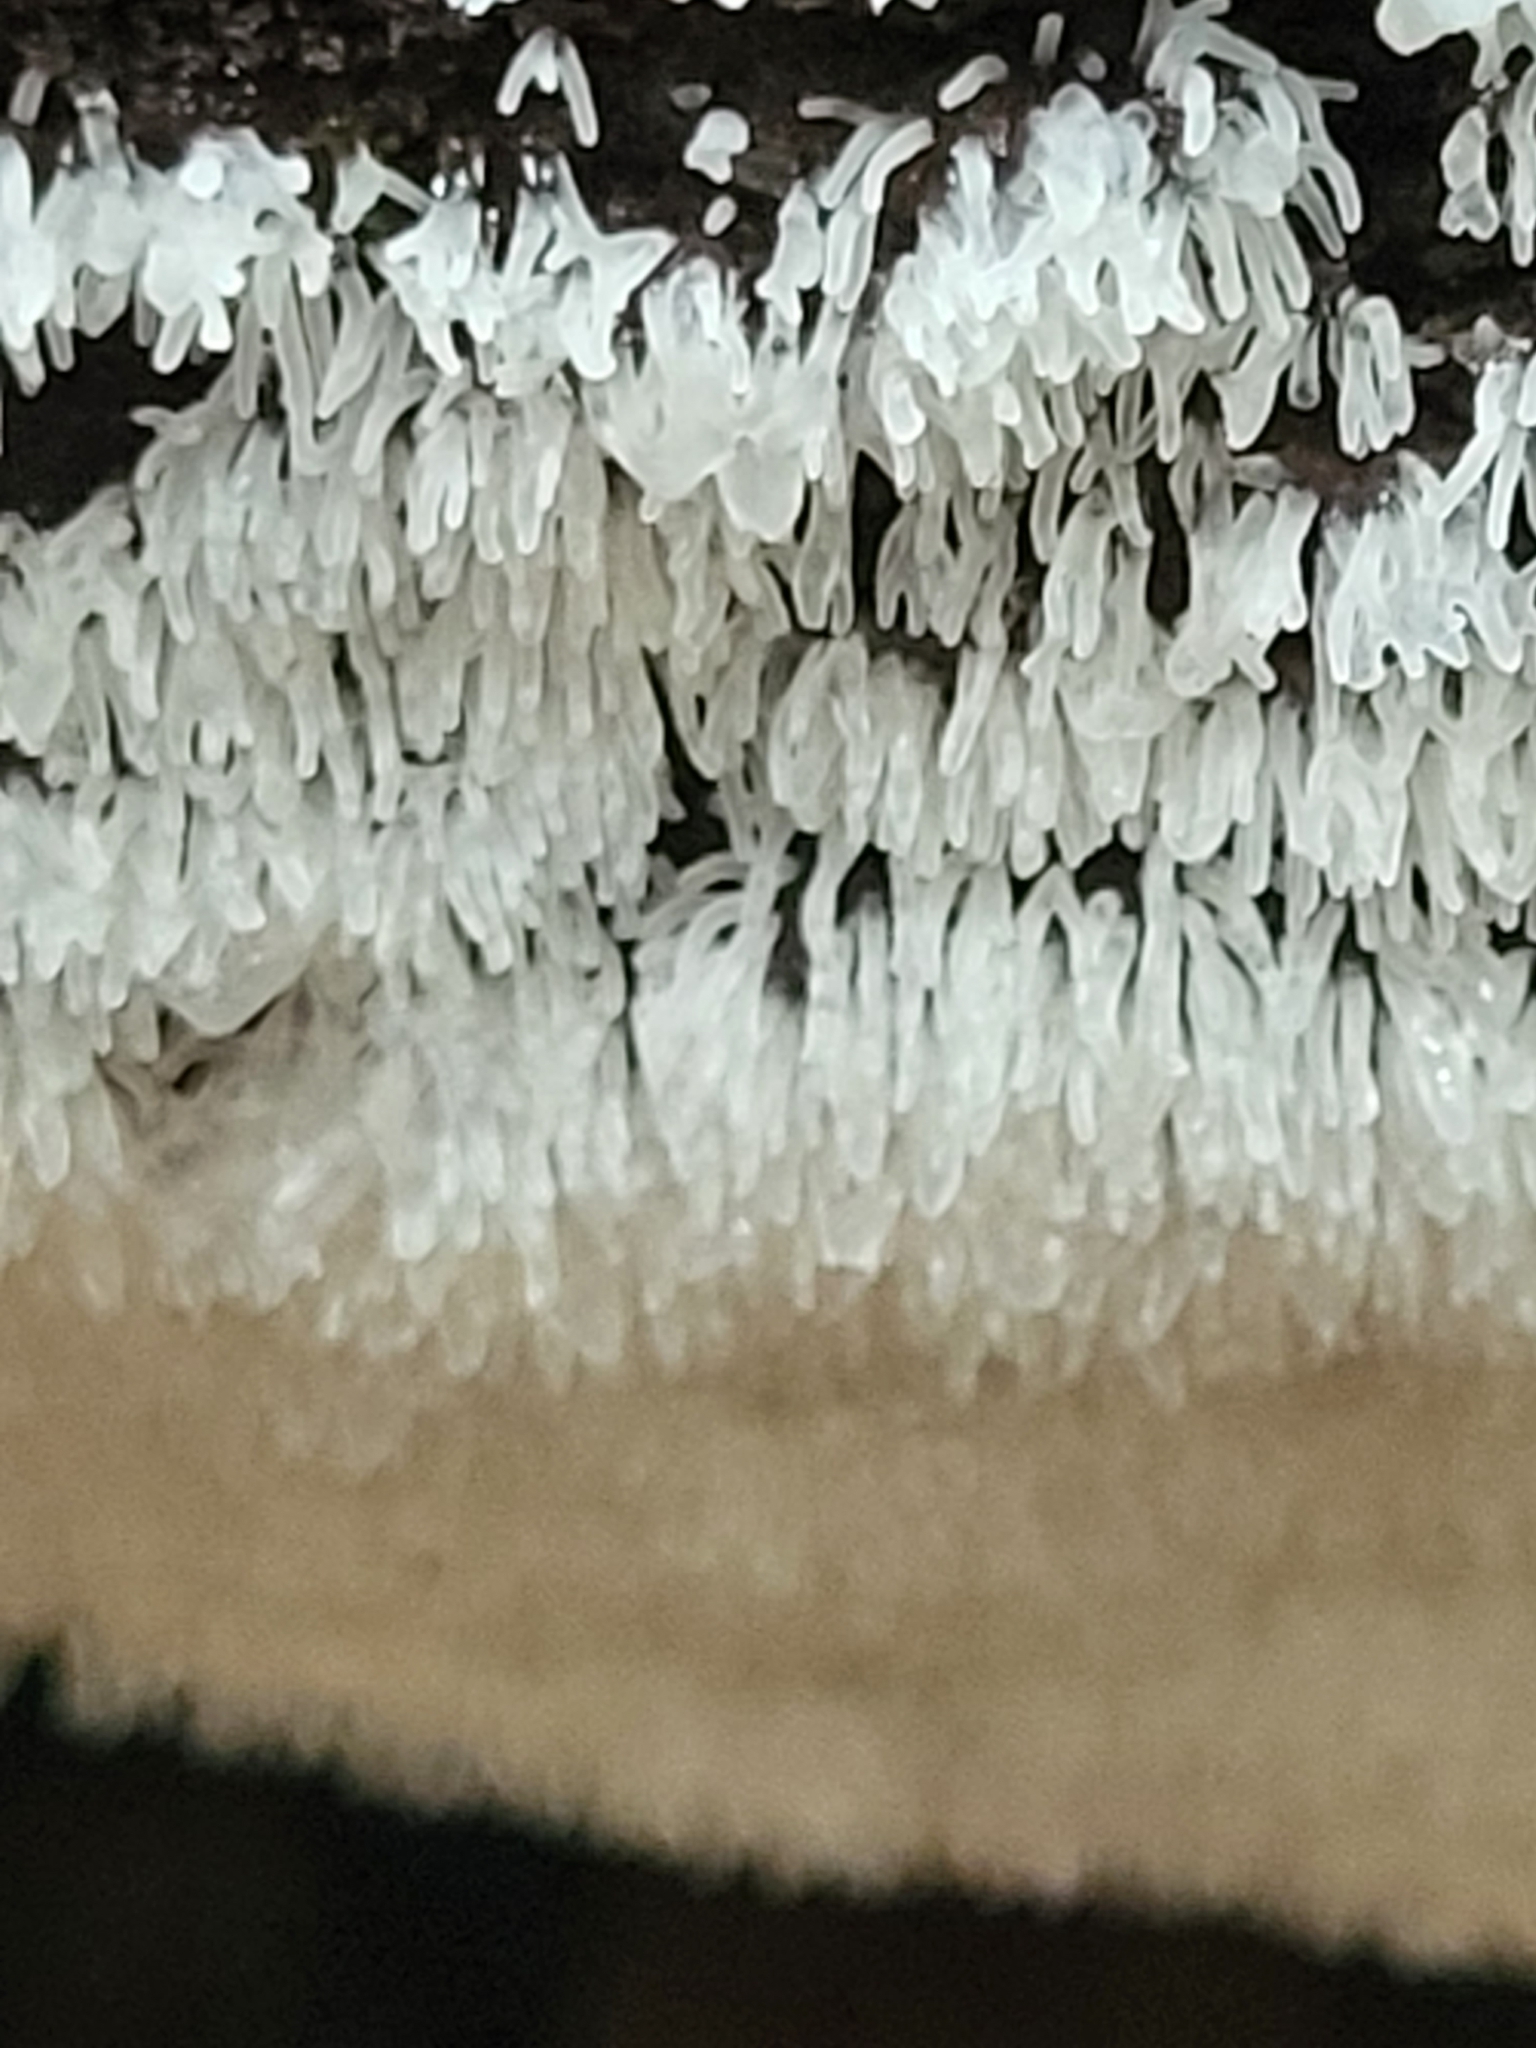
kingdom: Protozoa
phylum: Mycetozoa
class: Protosteliomycetes
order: Ceratiomyxales
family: Ceratiomyxaceae
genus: Ceratiomyxa
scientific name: Ceratiomyxa fruticulosa
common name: Honeycomb coral slime mold
